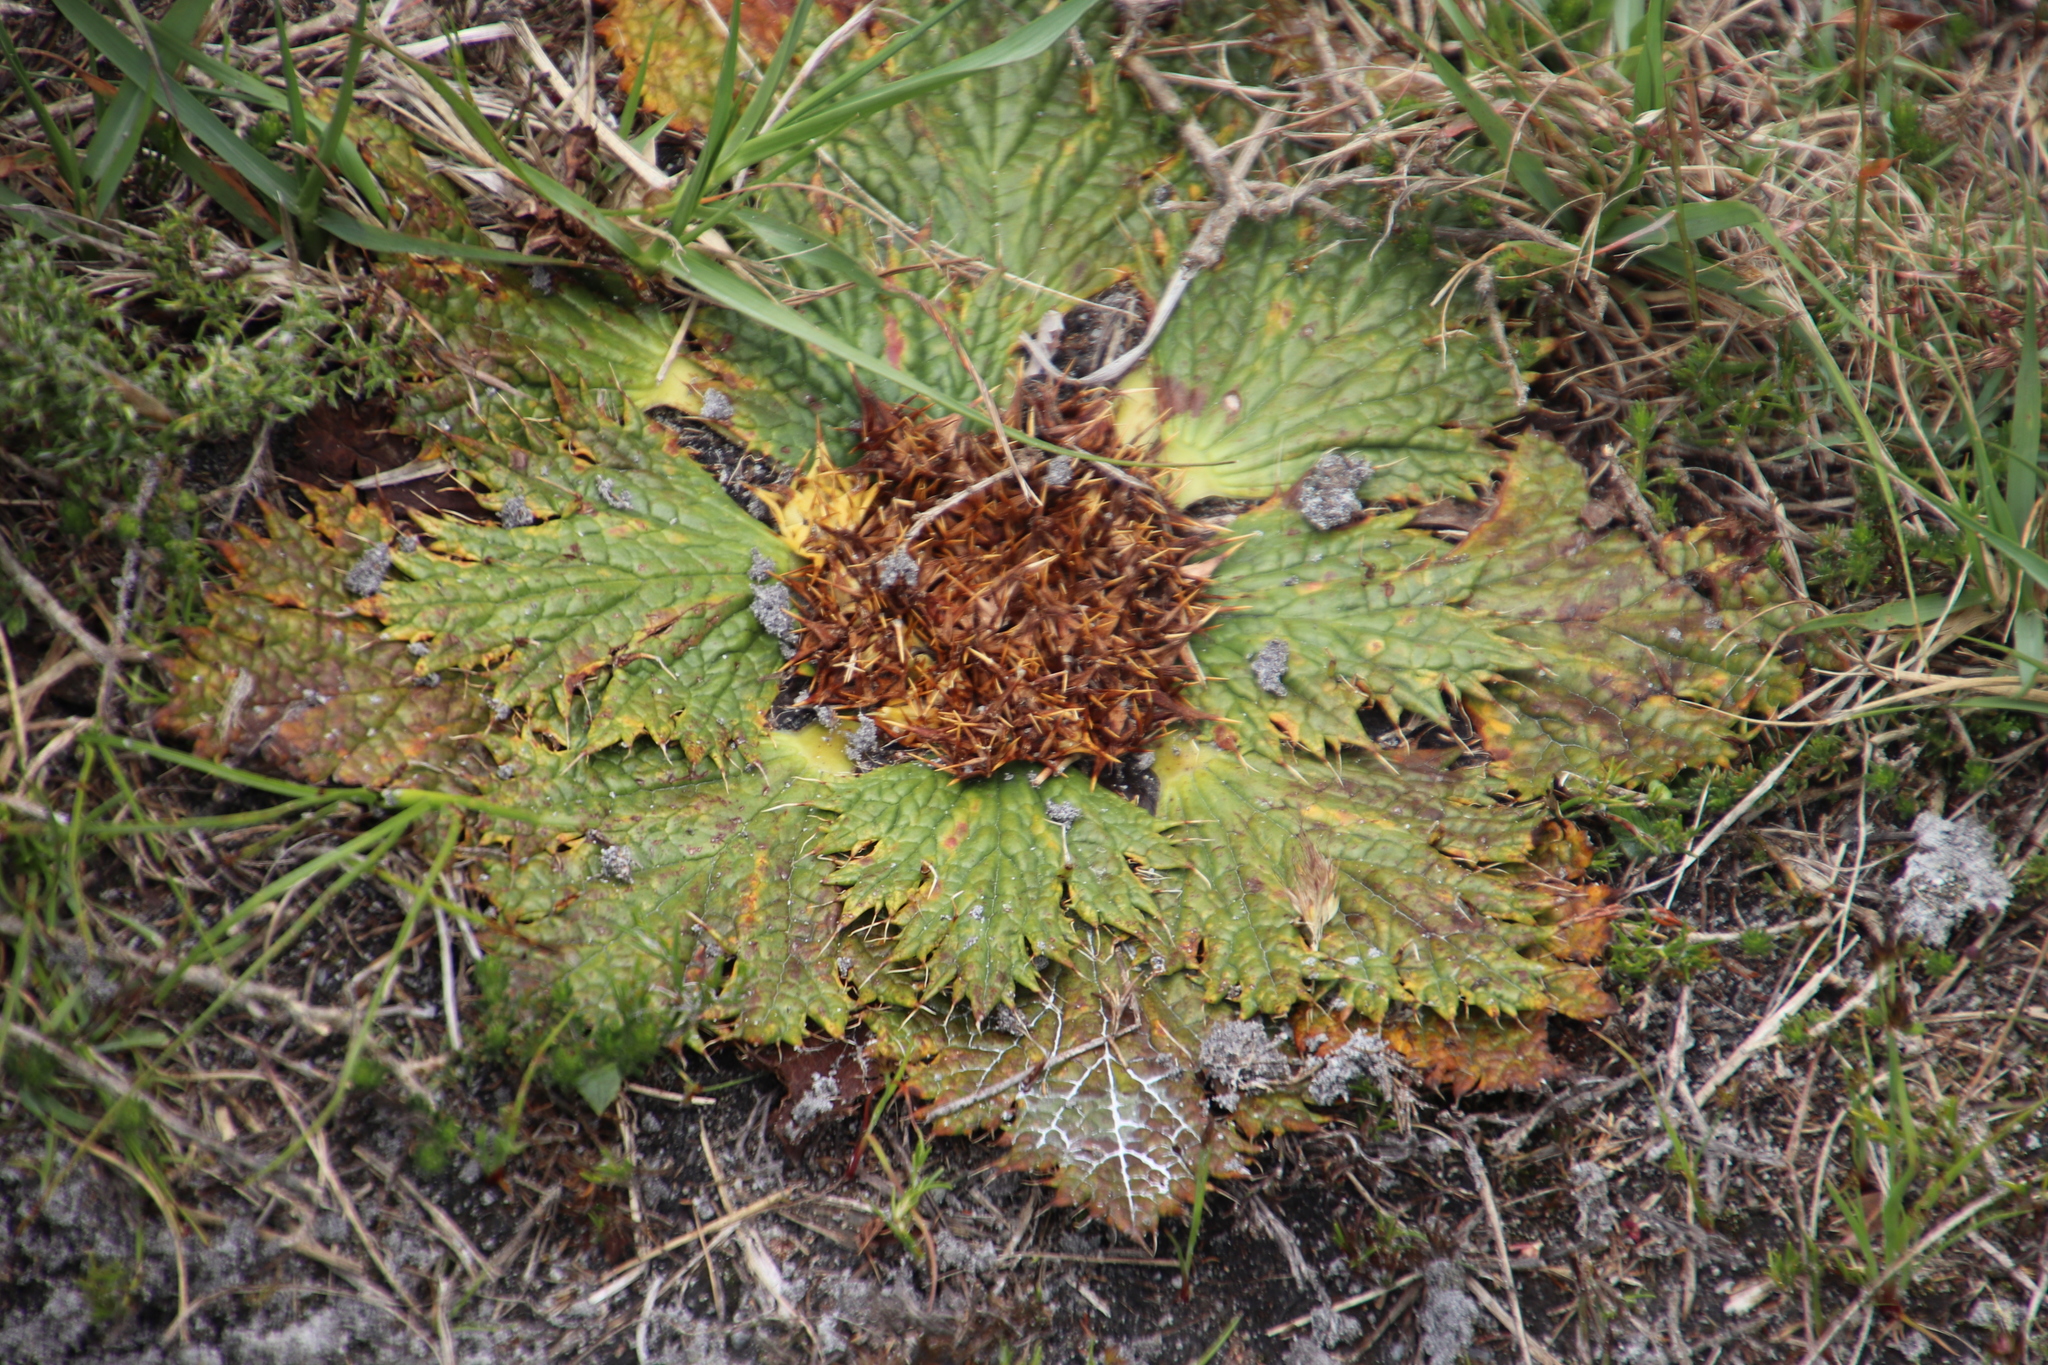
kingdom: Plantae
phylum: Tracheophyta
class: Magnoliopsida
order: Apiales
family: Apiaceae
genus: Arctopus
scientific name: Arctopus echinatus
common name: Platdoring
